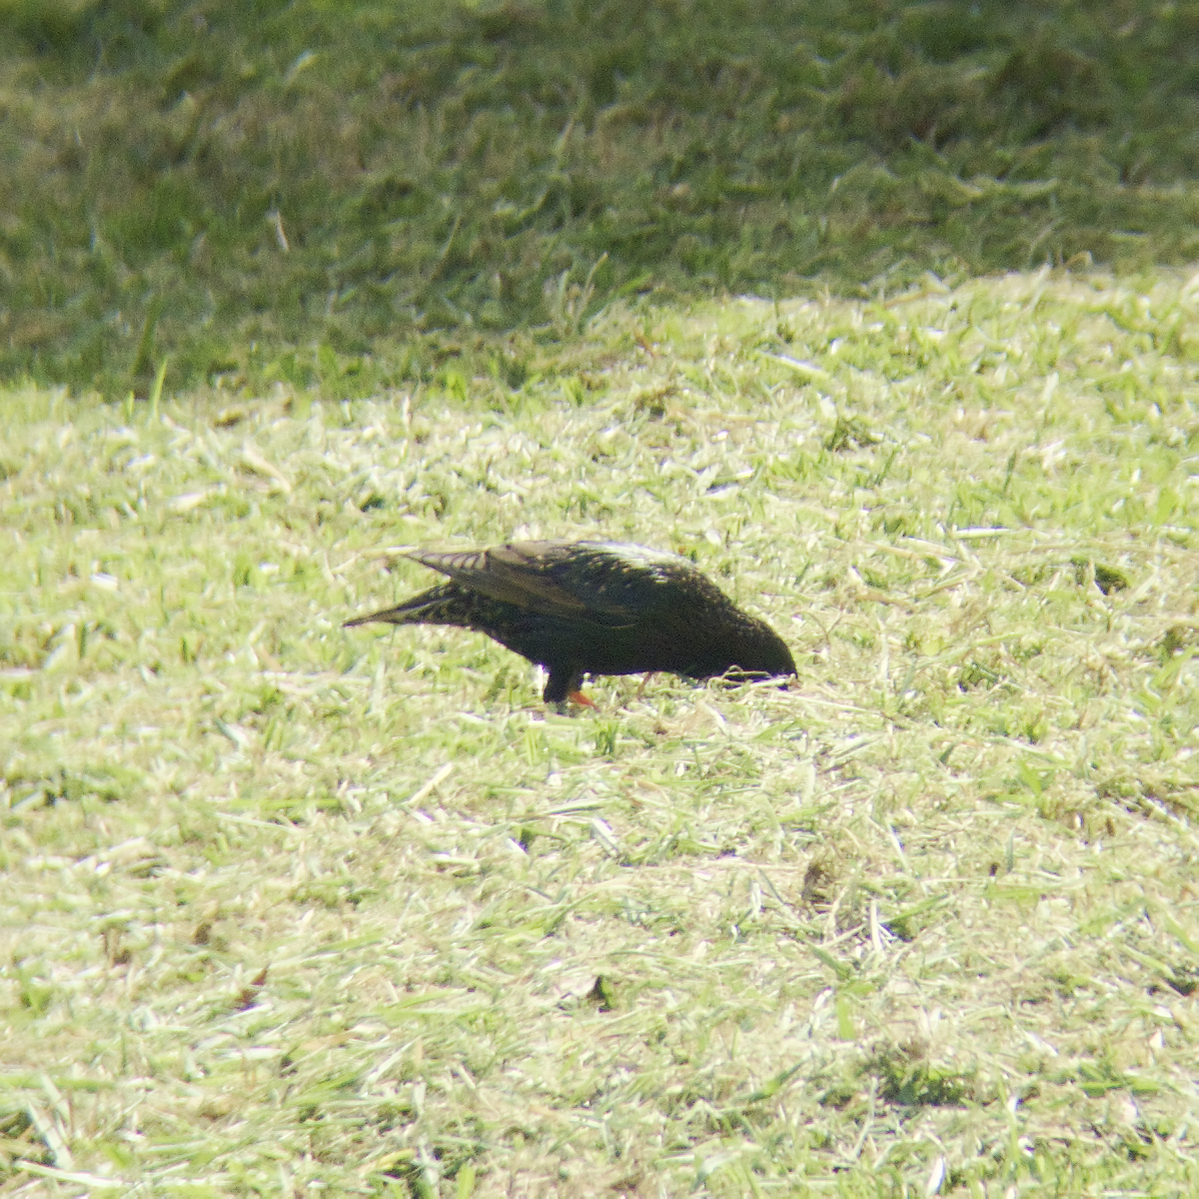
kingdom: Animalia
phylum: Chordata
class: Aves
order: Passeriformes
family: Sturnidae
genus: Sturnus
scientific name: Sturnus vulgaris
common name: Common starling
